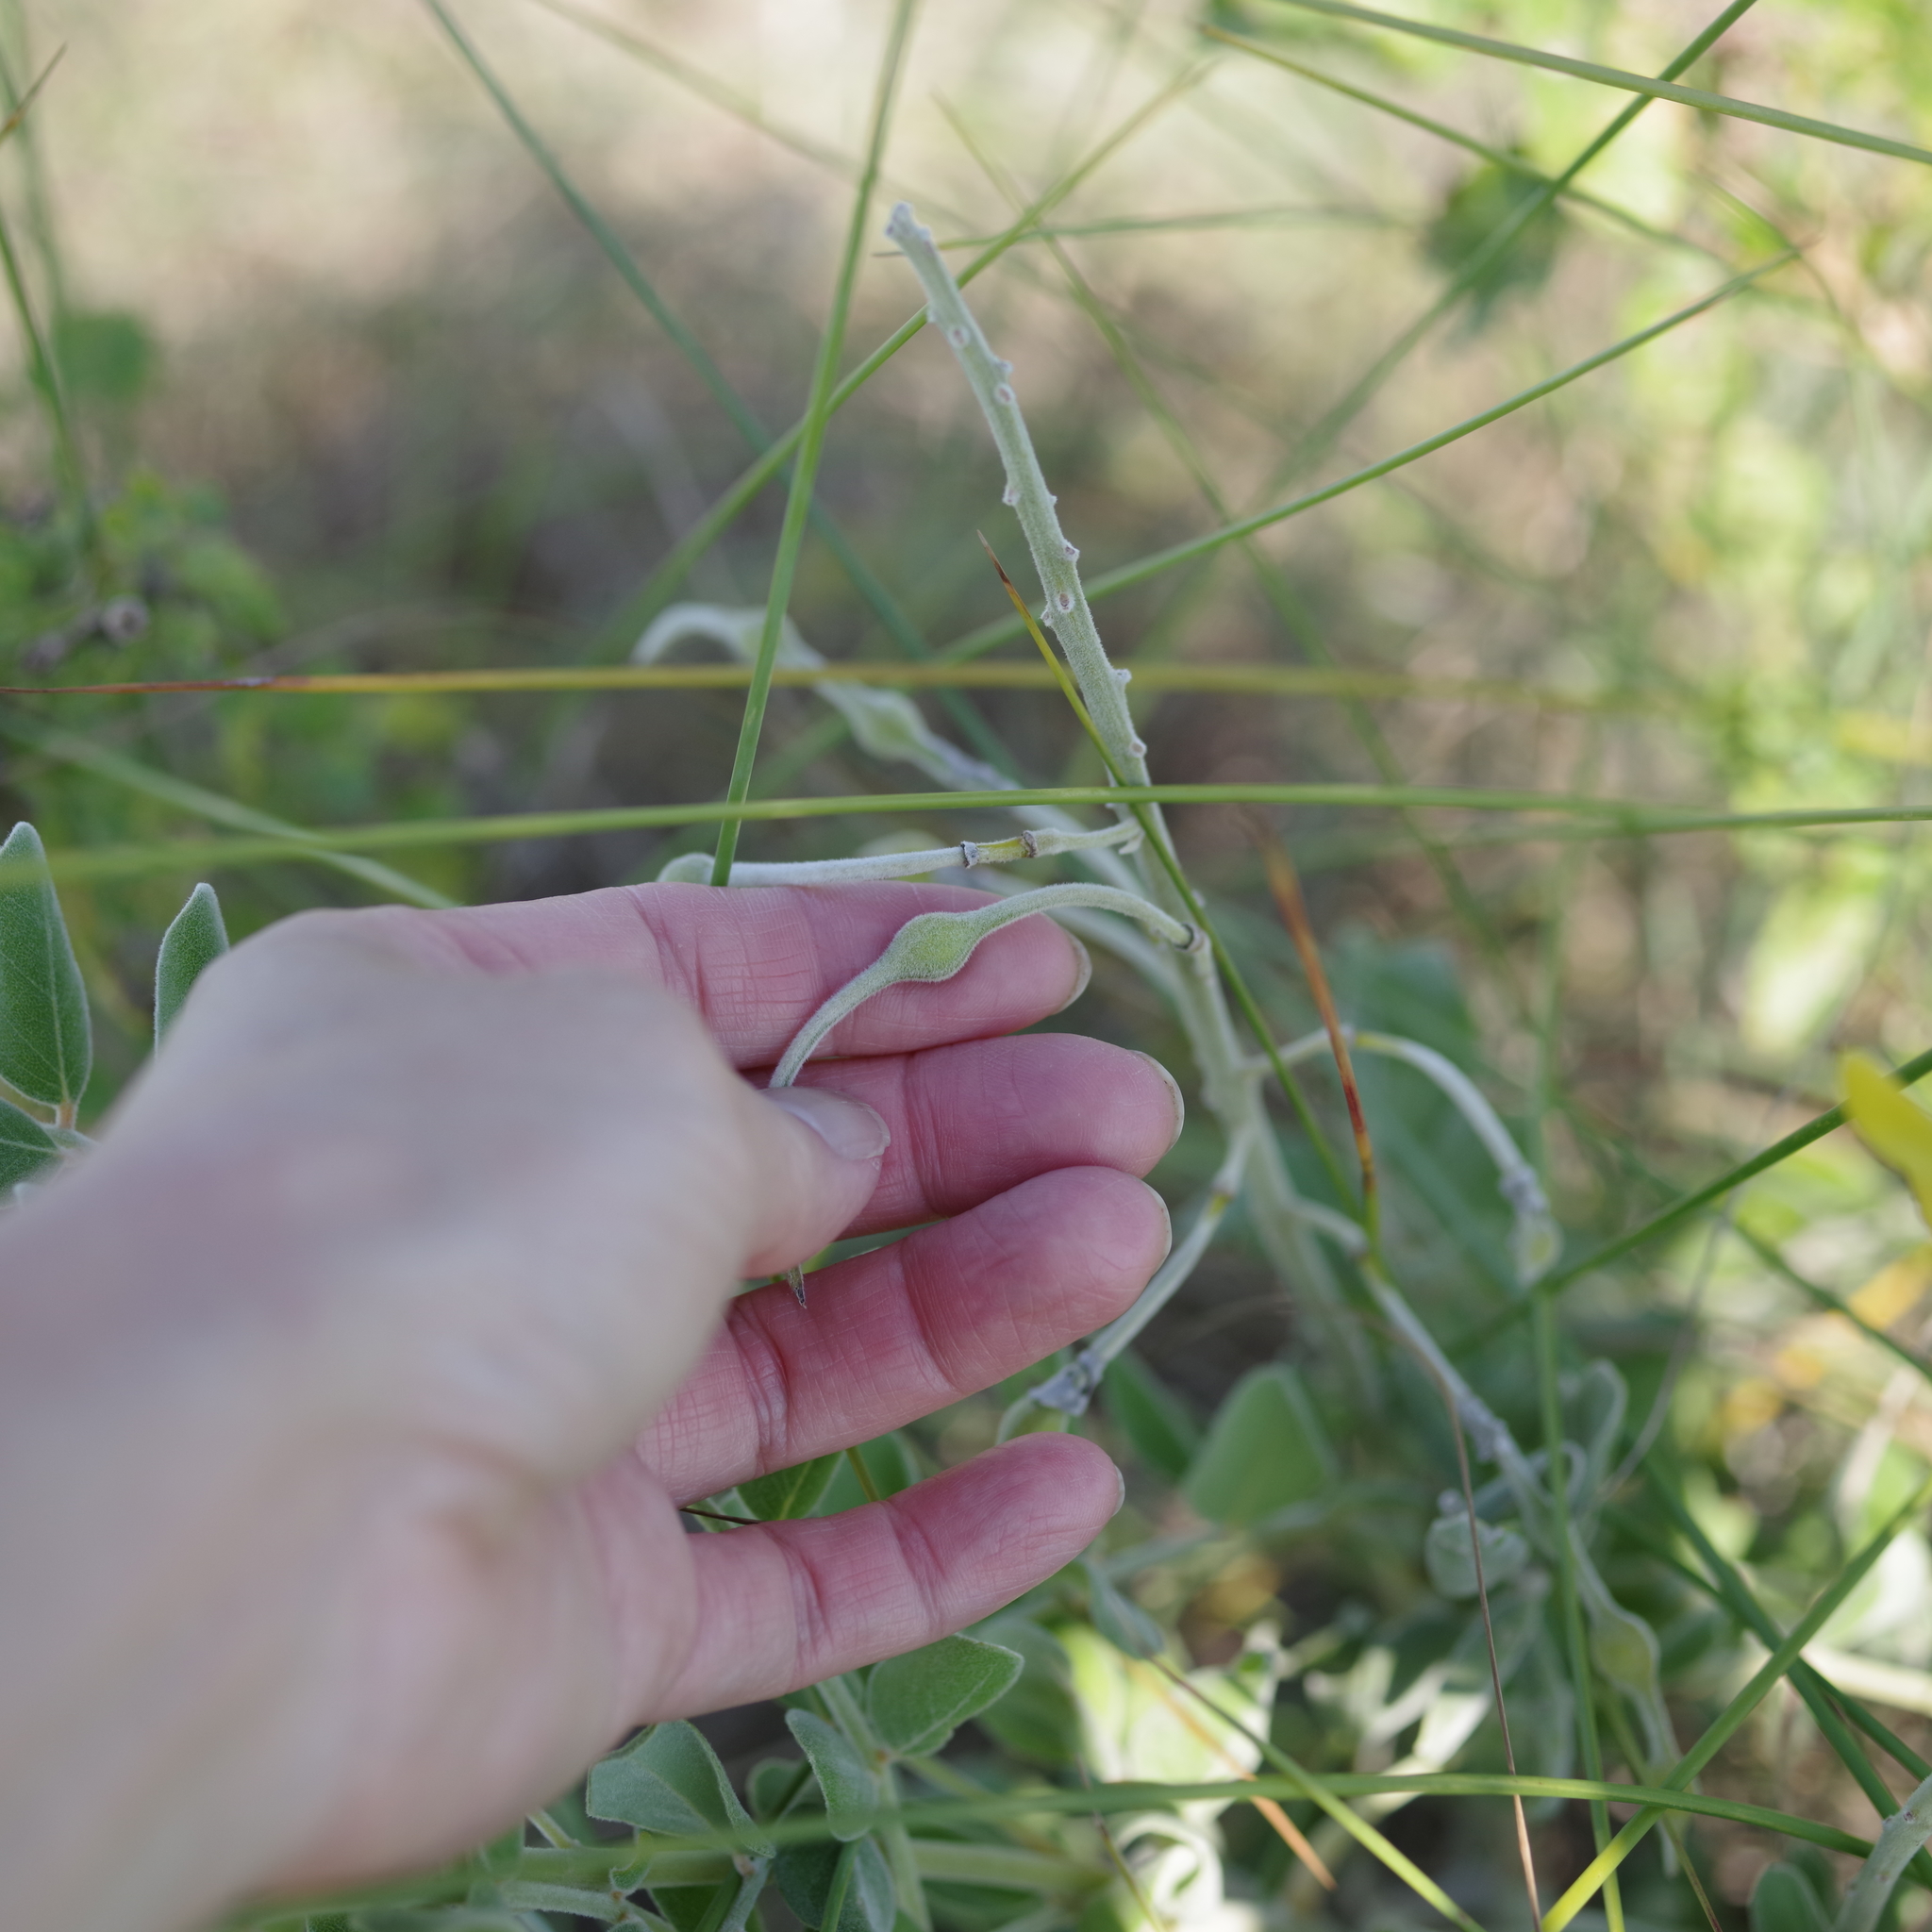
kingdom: Plantae
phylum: Tracheophyta
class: Magnoliopsida
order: Fabales
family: Fabaceae
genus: Sophora
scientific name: Sophora tomentosa
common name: Yellow necklacepod
